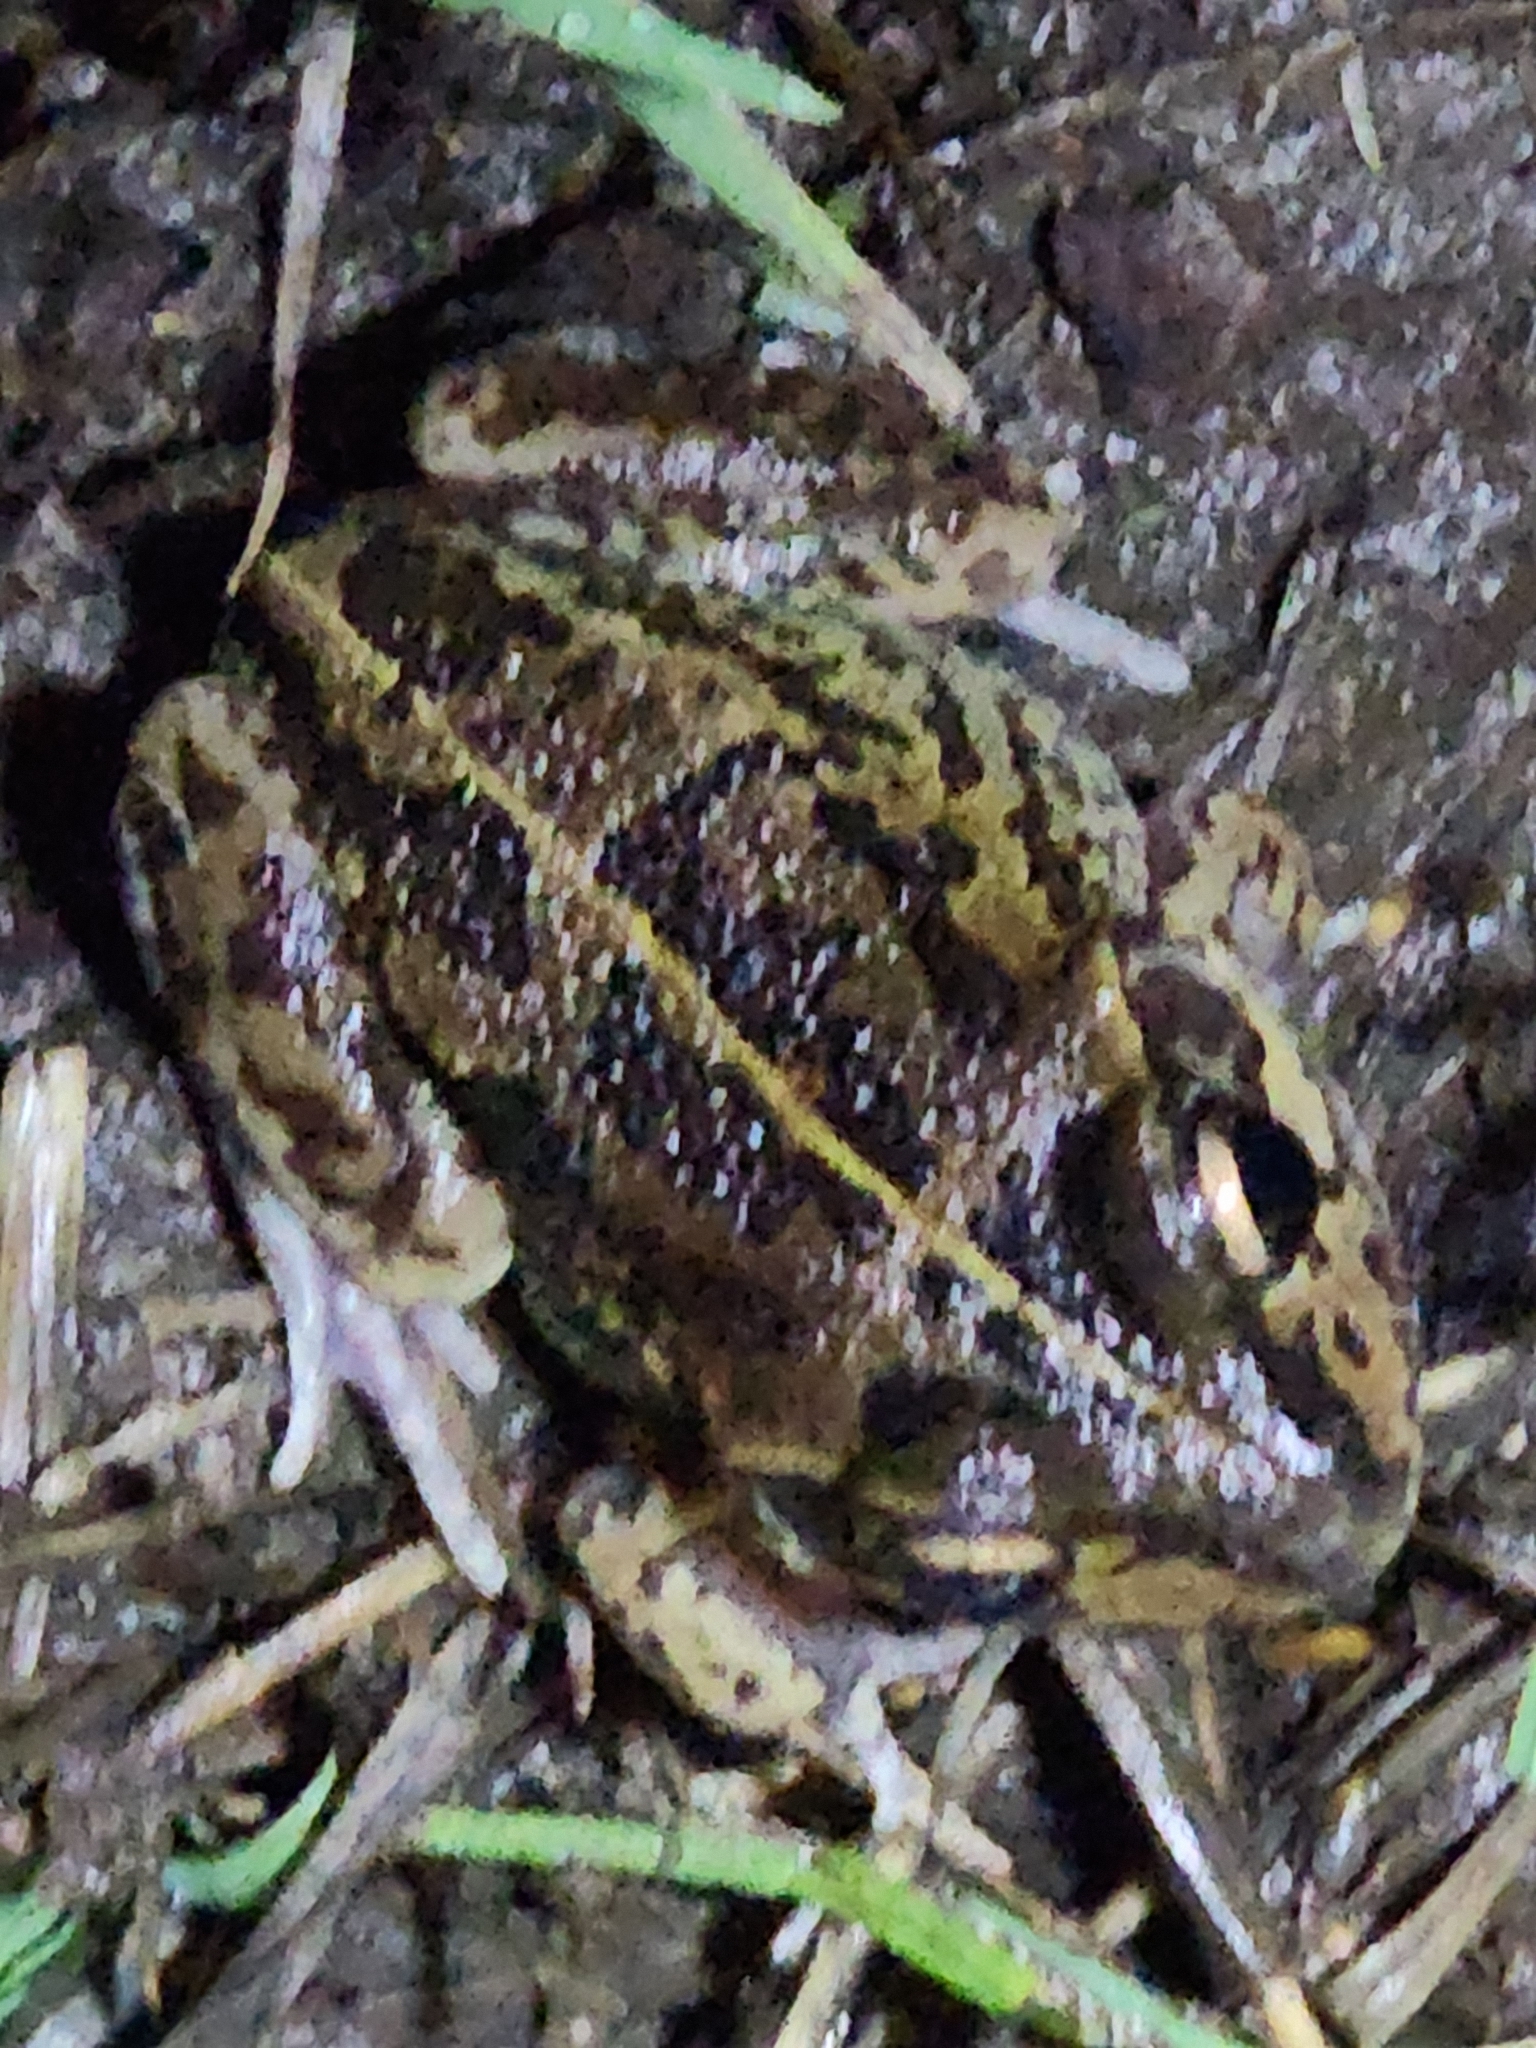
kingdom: Animalia
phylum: Chordata
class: Amphibia
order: Anura
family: Pelodryadidae
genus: Ranoidea
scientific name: Ranoidea brevipes
